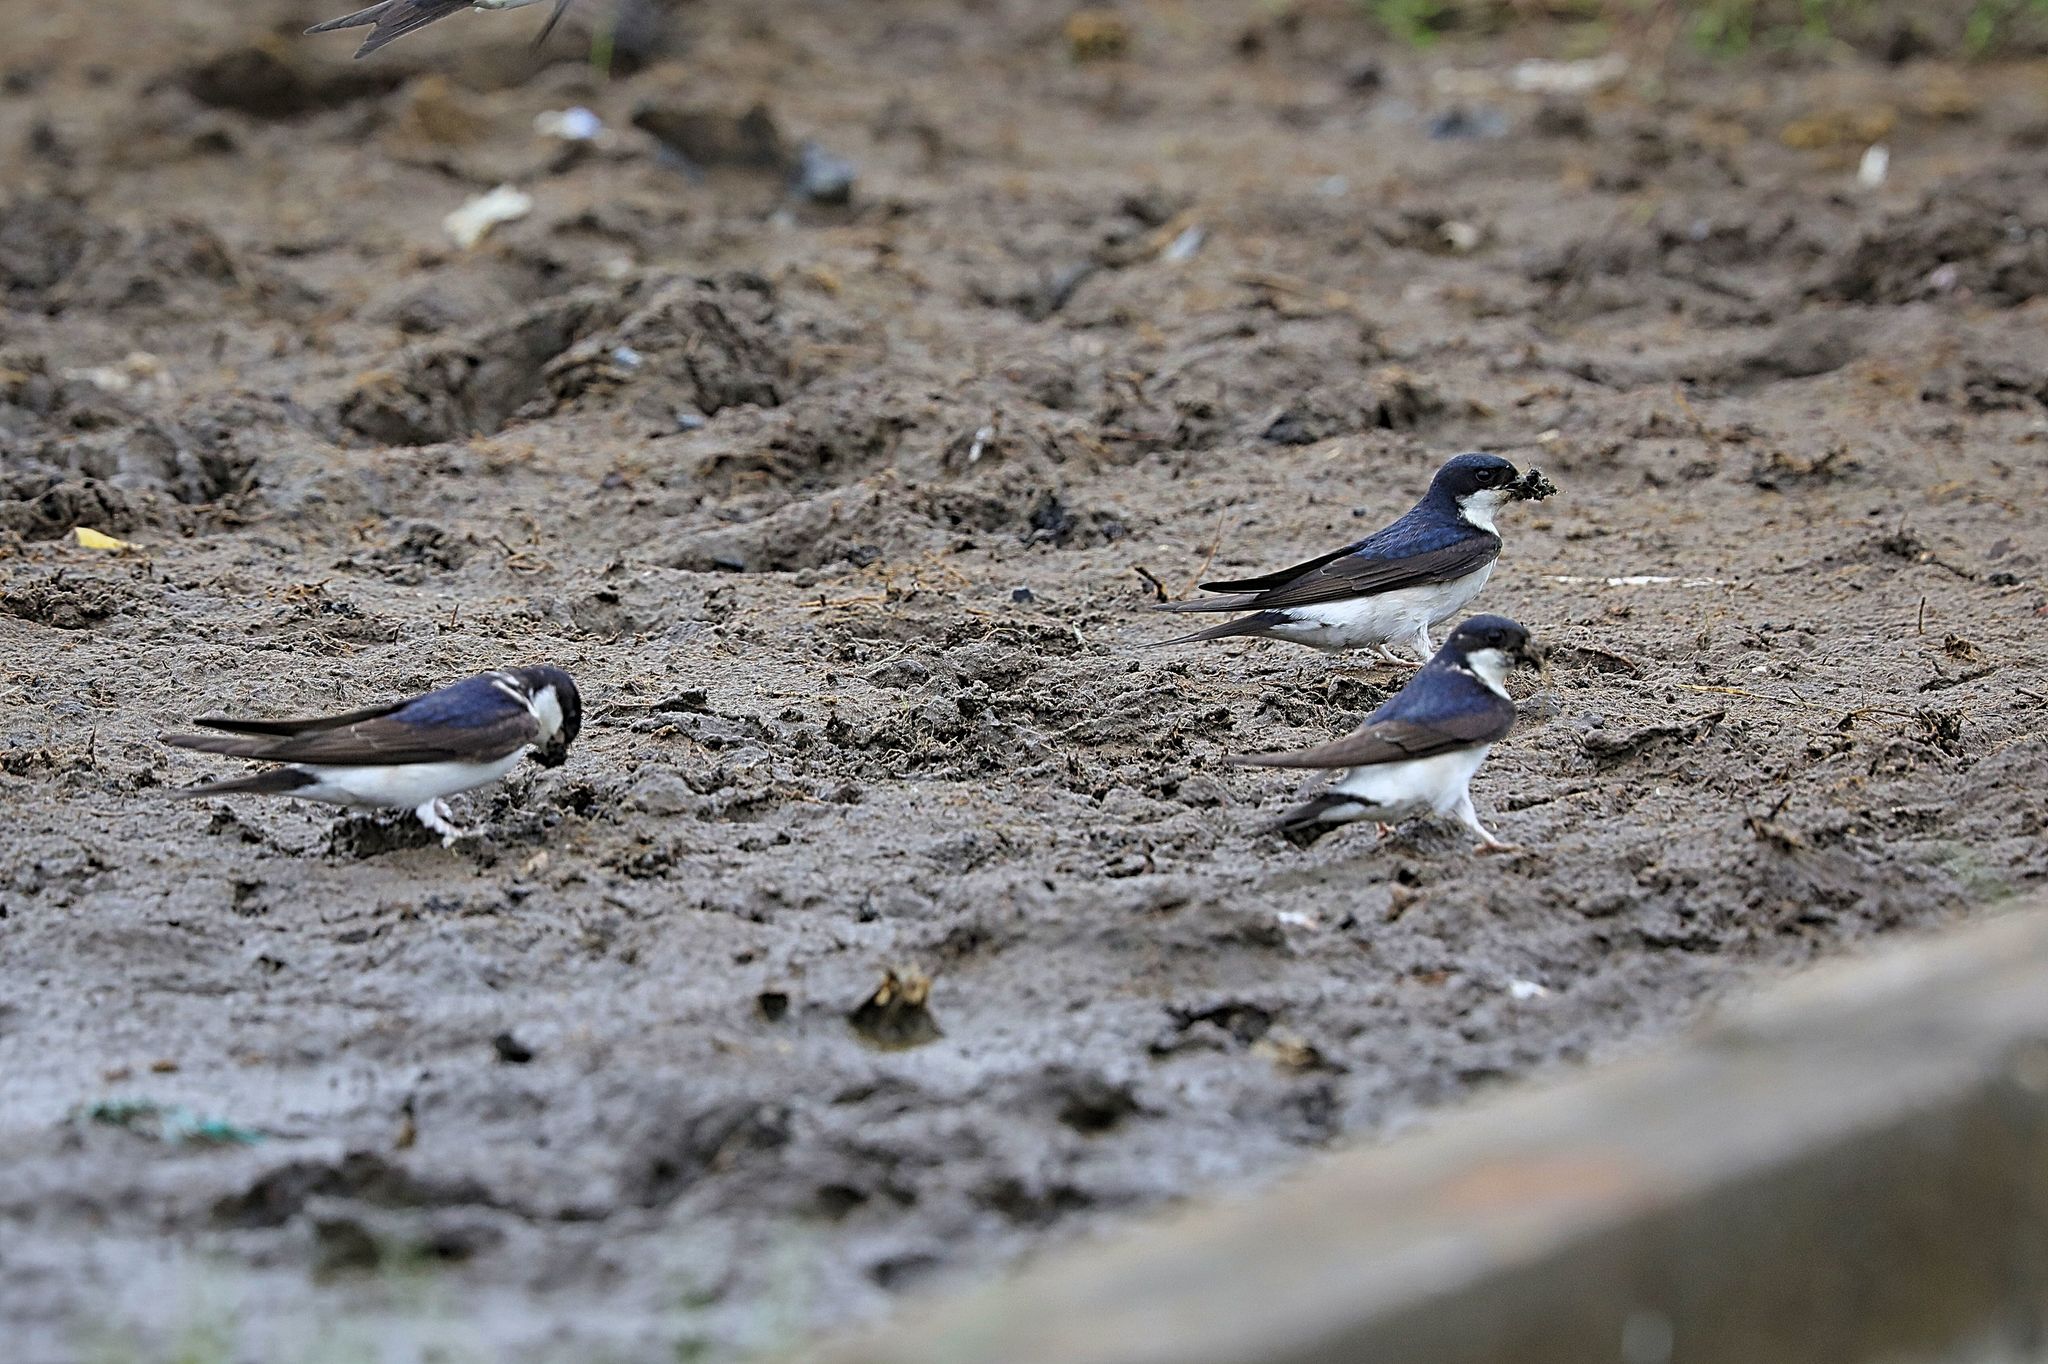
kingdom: Animalia
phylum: Chordata
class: Aves
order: Passeriformes
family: Hirundinidae
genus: Delichon
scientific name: Delichon urbicum
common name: Common house martin
